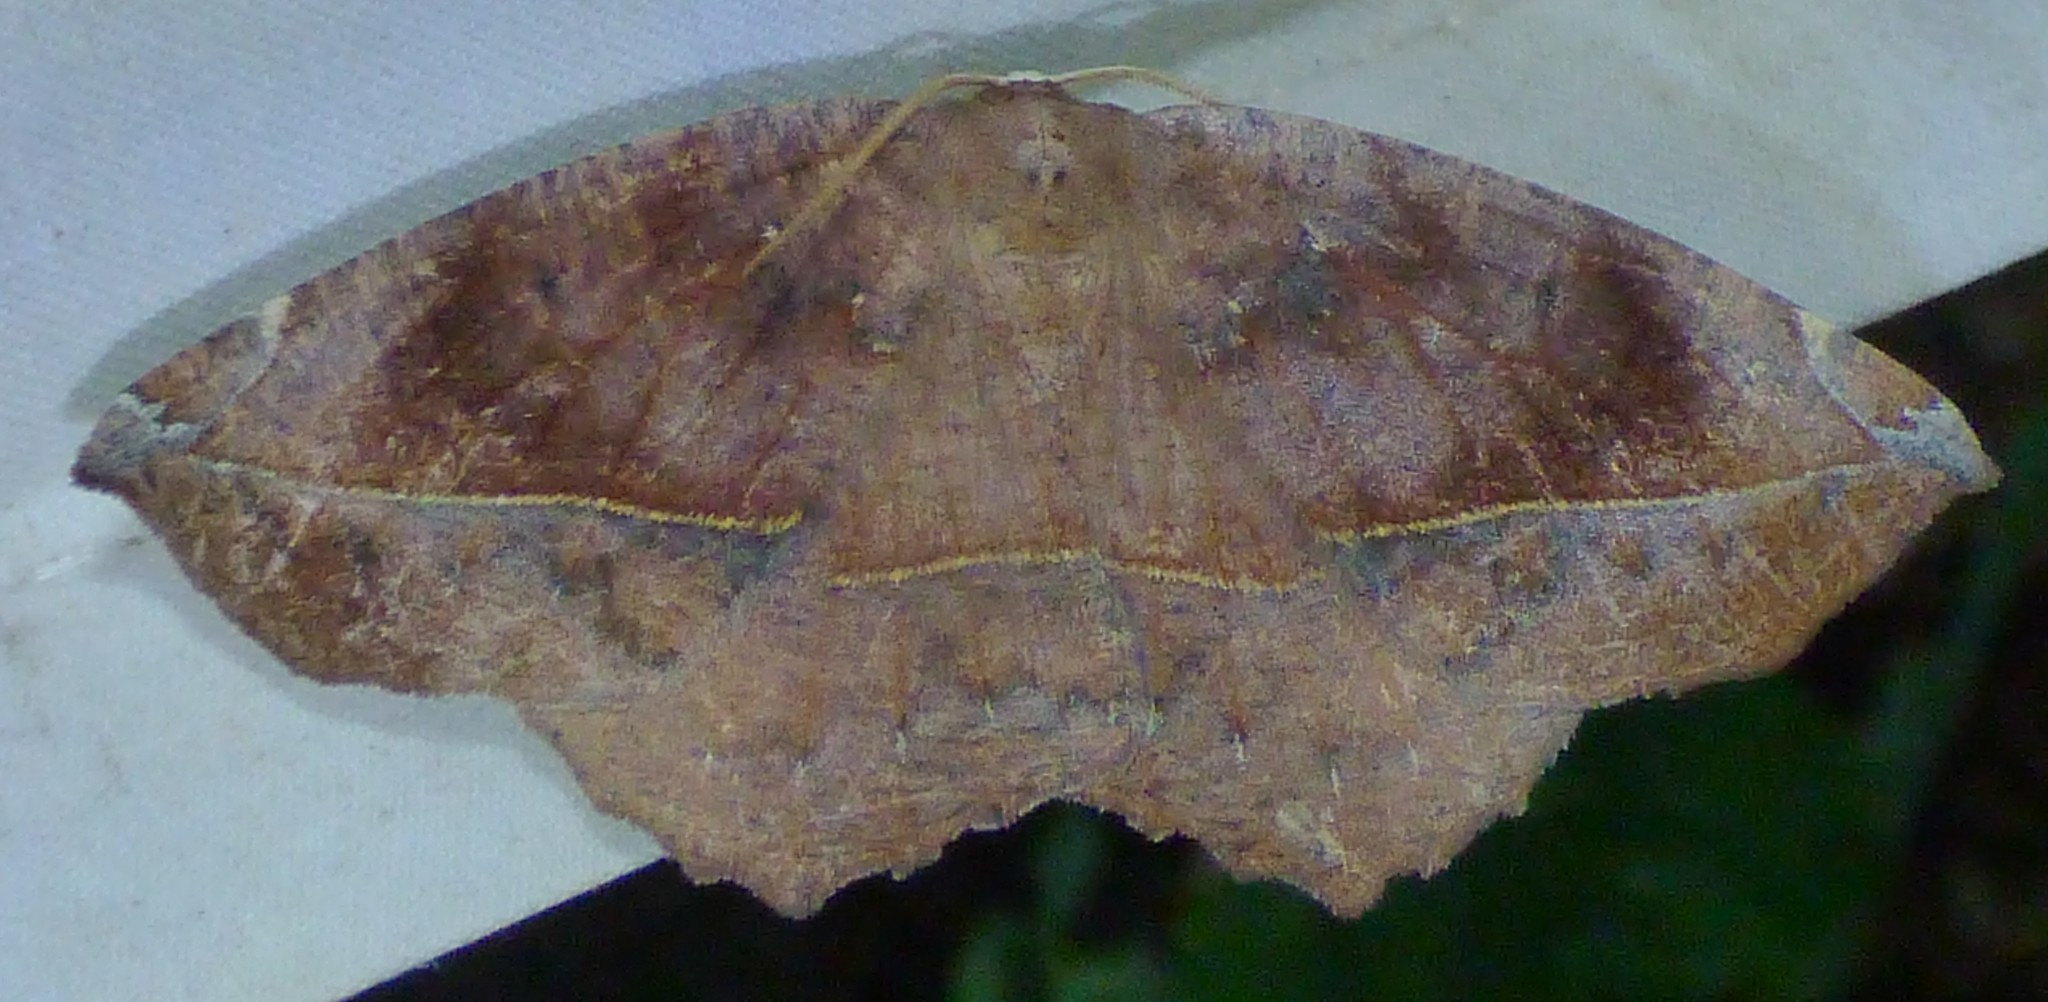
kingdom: Animalia
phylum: Arthropoda
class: Insecta
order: Lepidoptera
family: Geometridae
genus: Eutrapela
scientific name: Eutrapela clemataria
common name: Curved-toothed geometer
